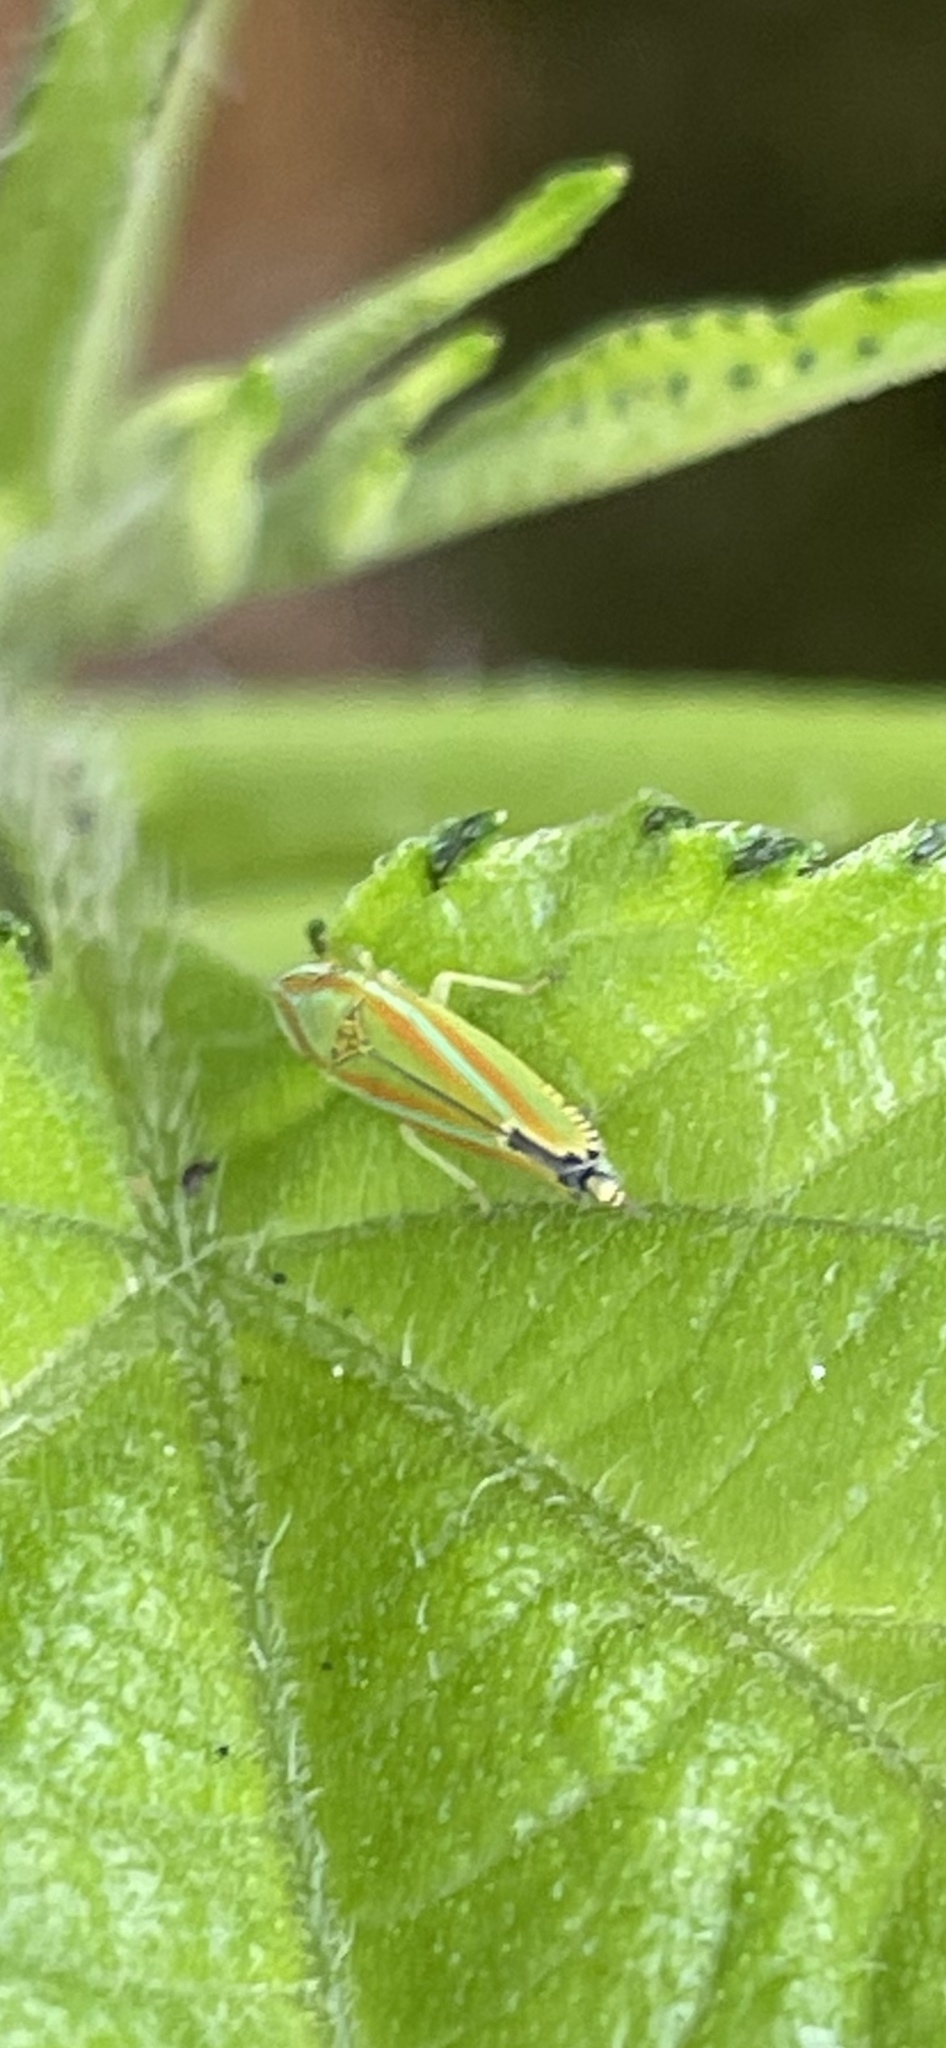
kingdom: Animalia
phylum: Arthropoda
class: Insecta
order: Hemiptera
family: Cicadellidae
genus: Graphocephala
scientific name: Graphocephala versuta
